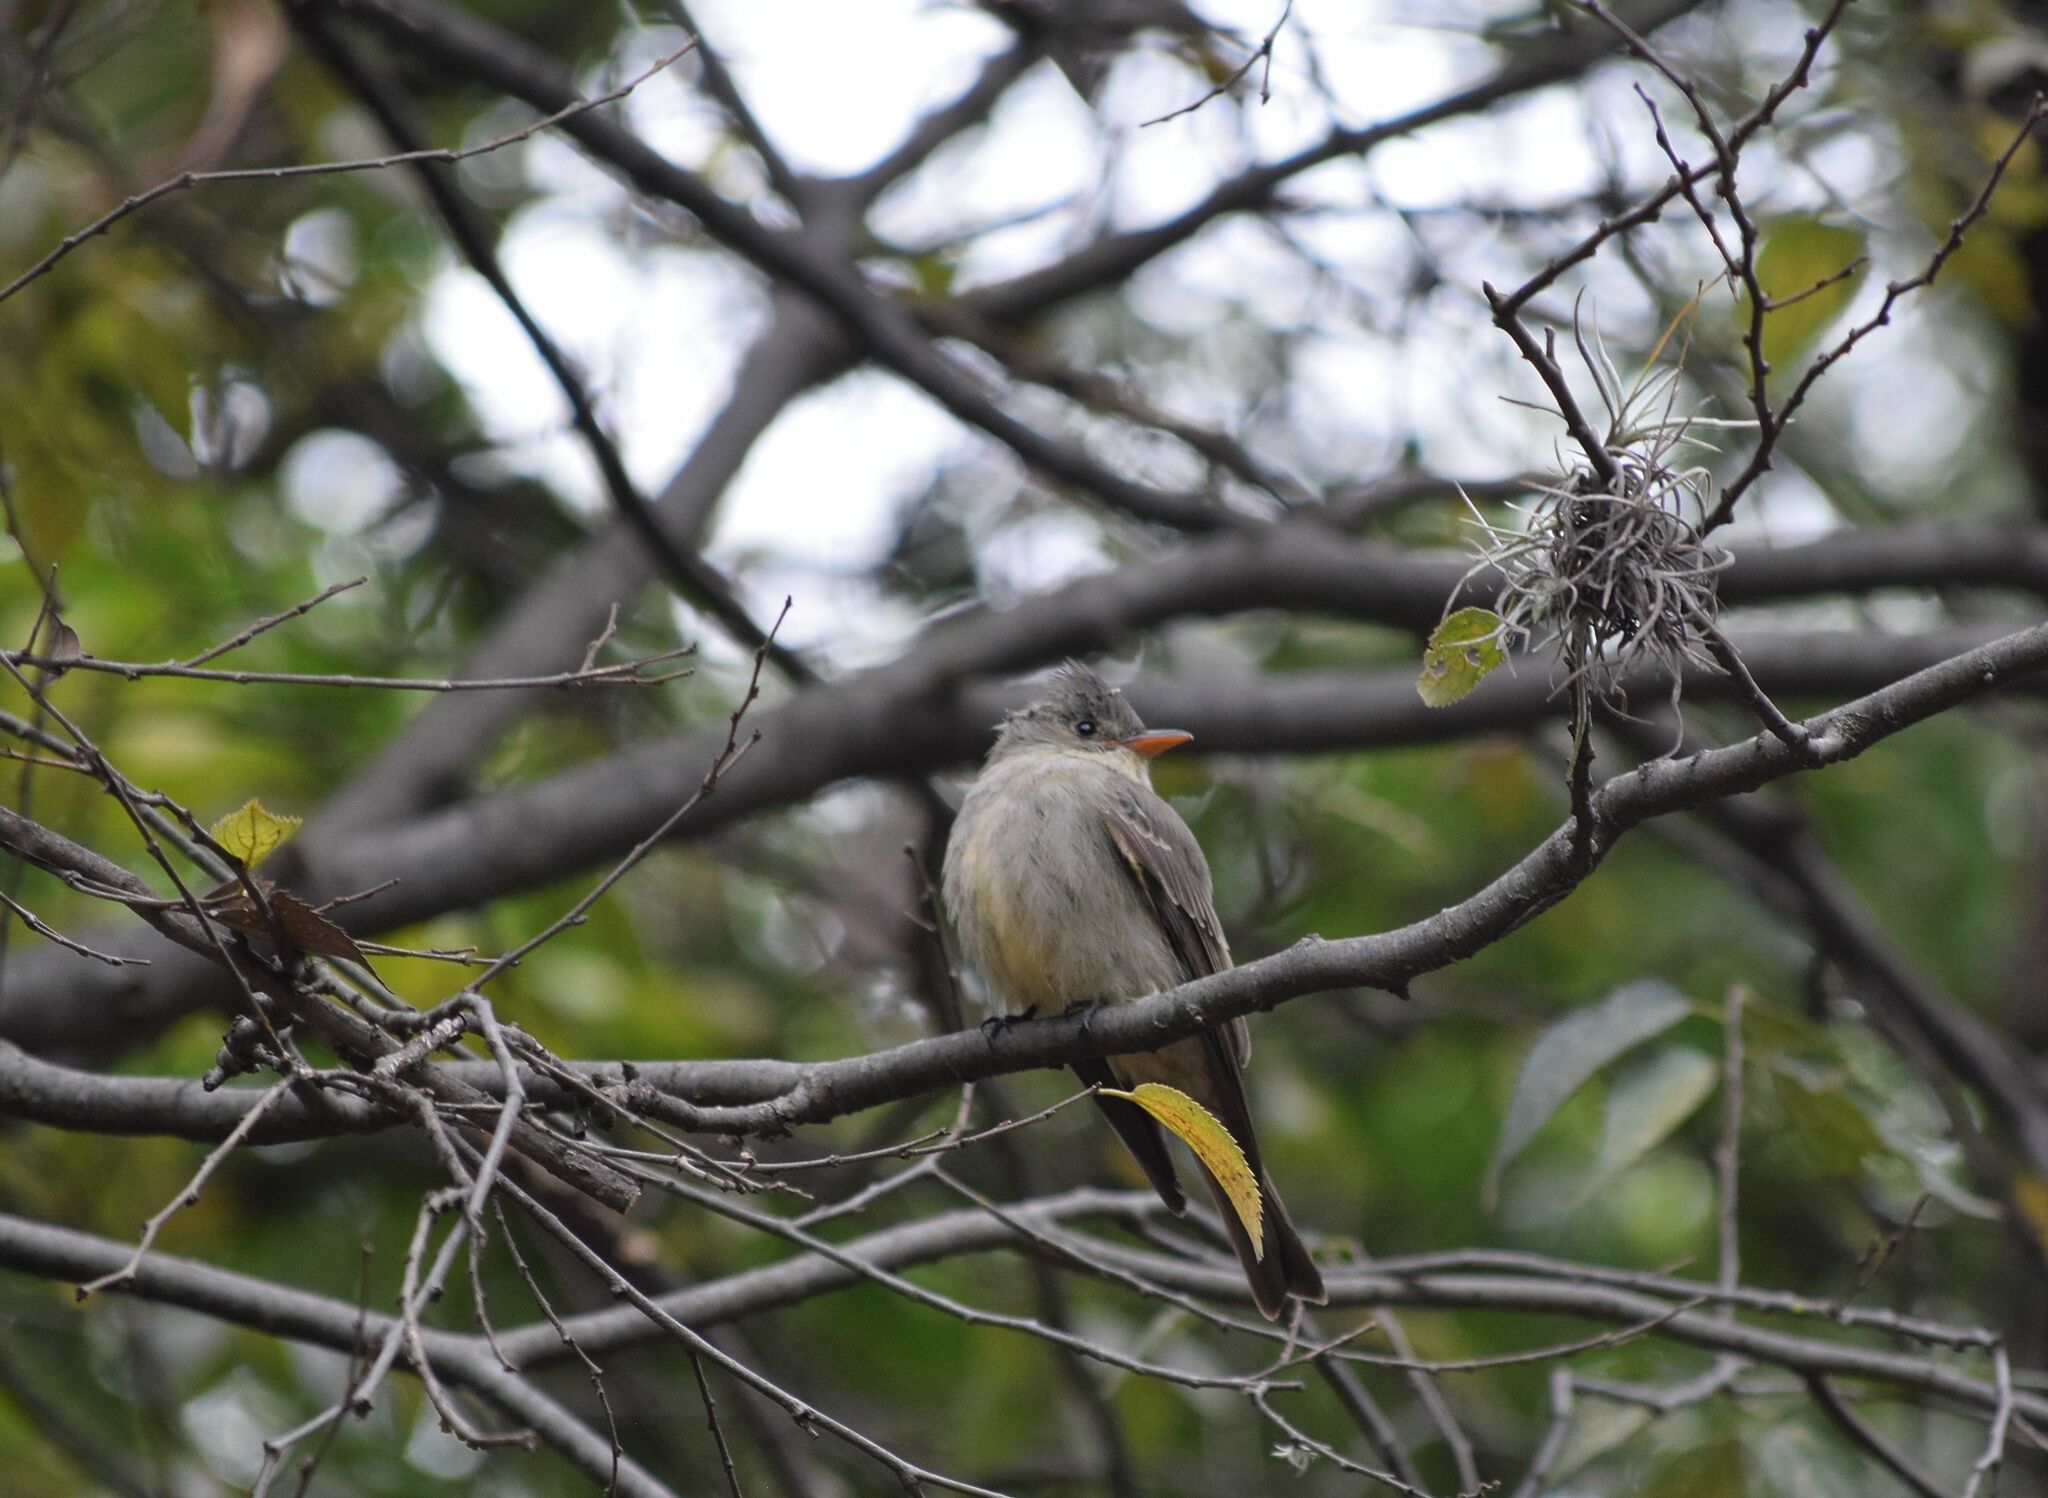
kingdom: Animalia
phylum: Chordata
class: Aves
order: Passeriformes
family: Tyrannidae
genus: Contopus
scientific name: Contopus pertinax
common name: Greater pewee
